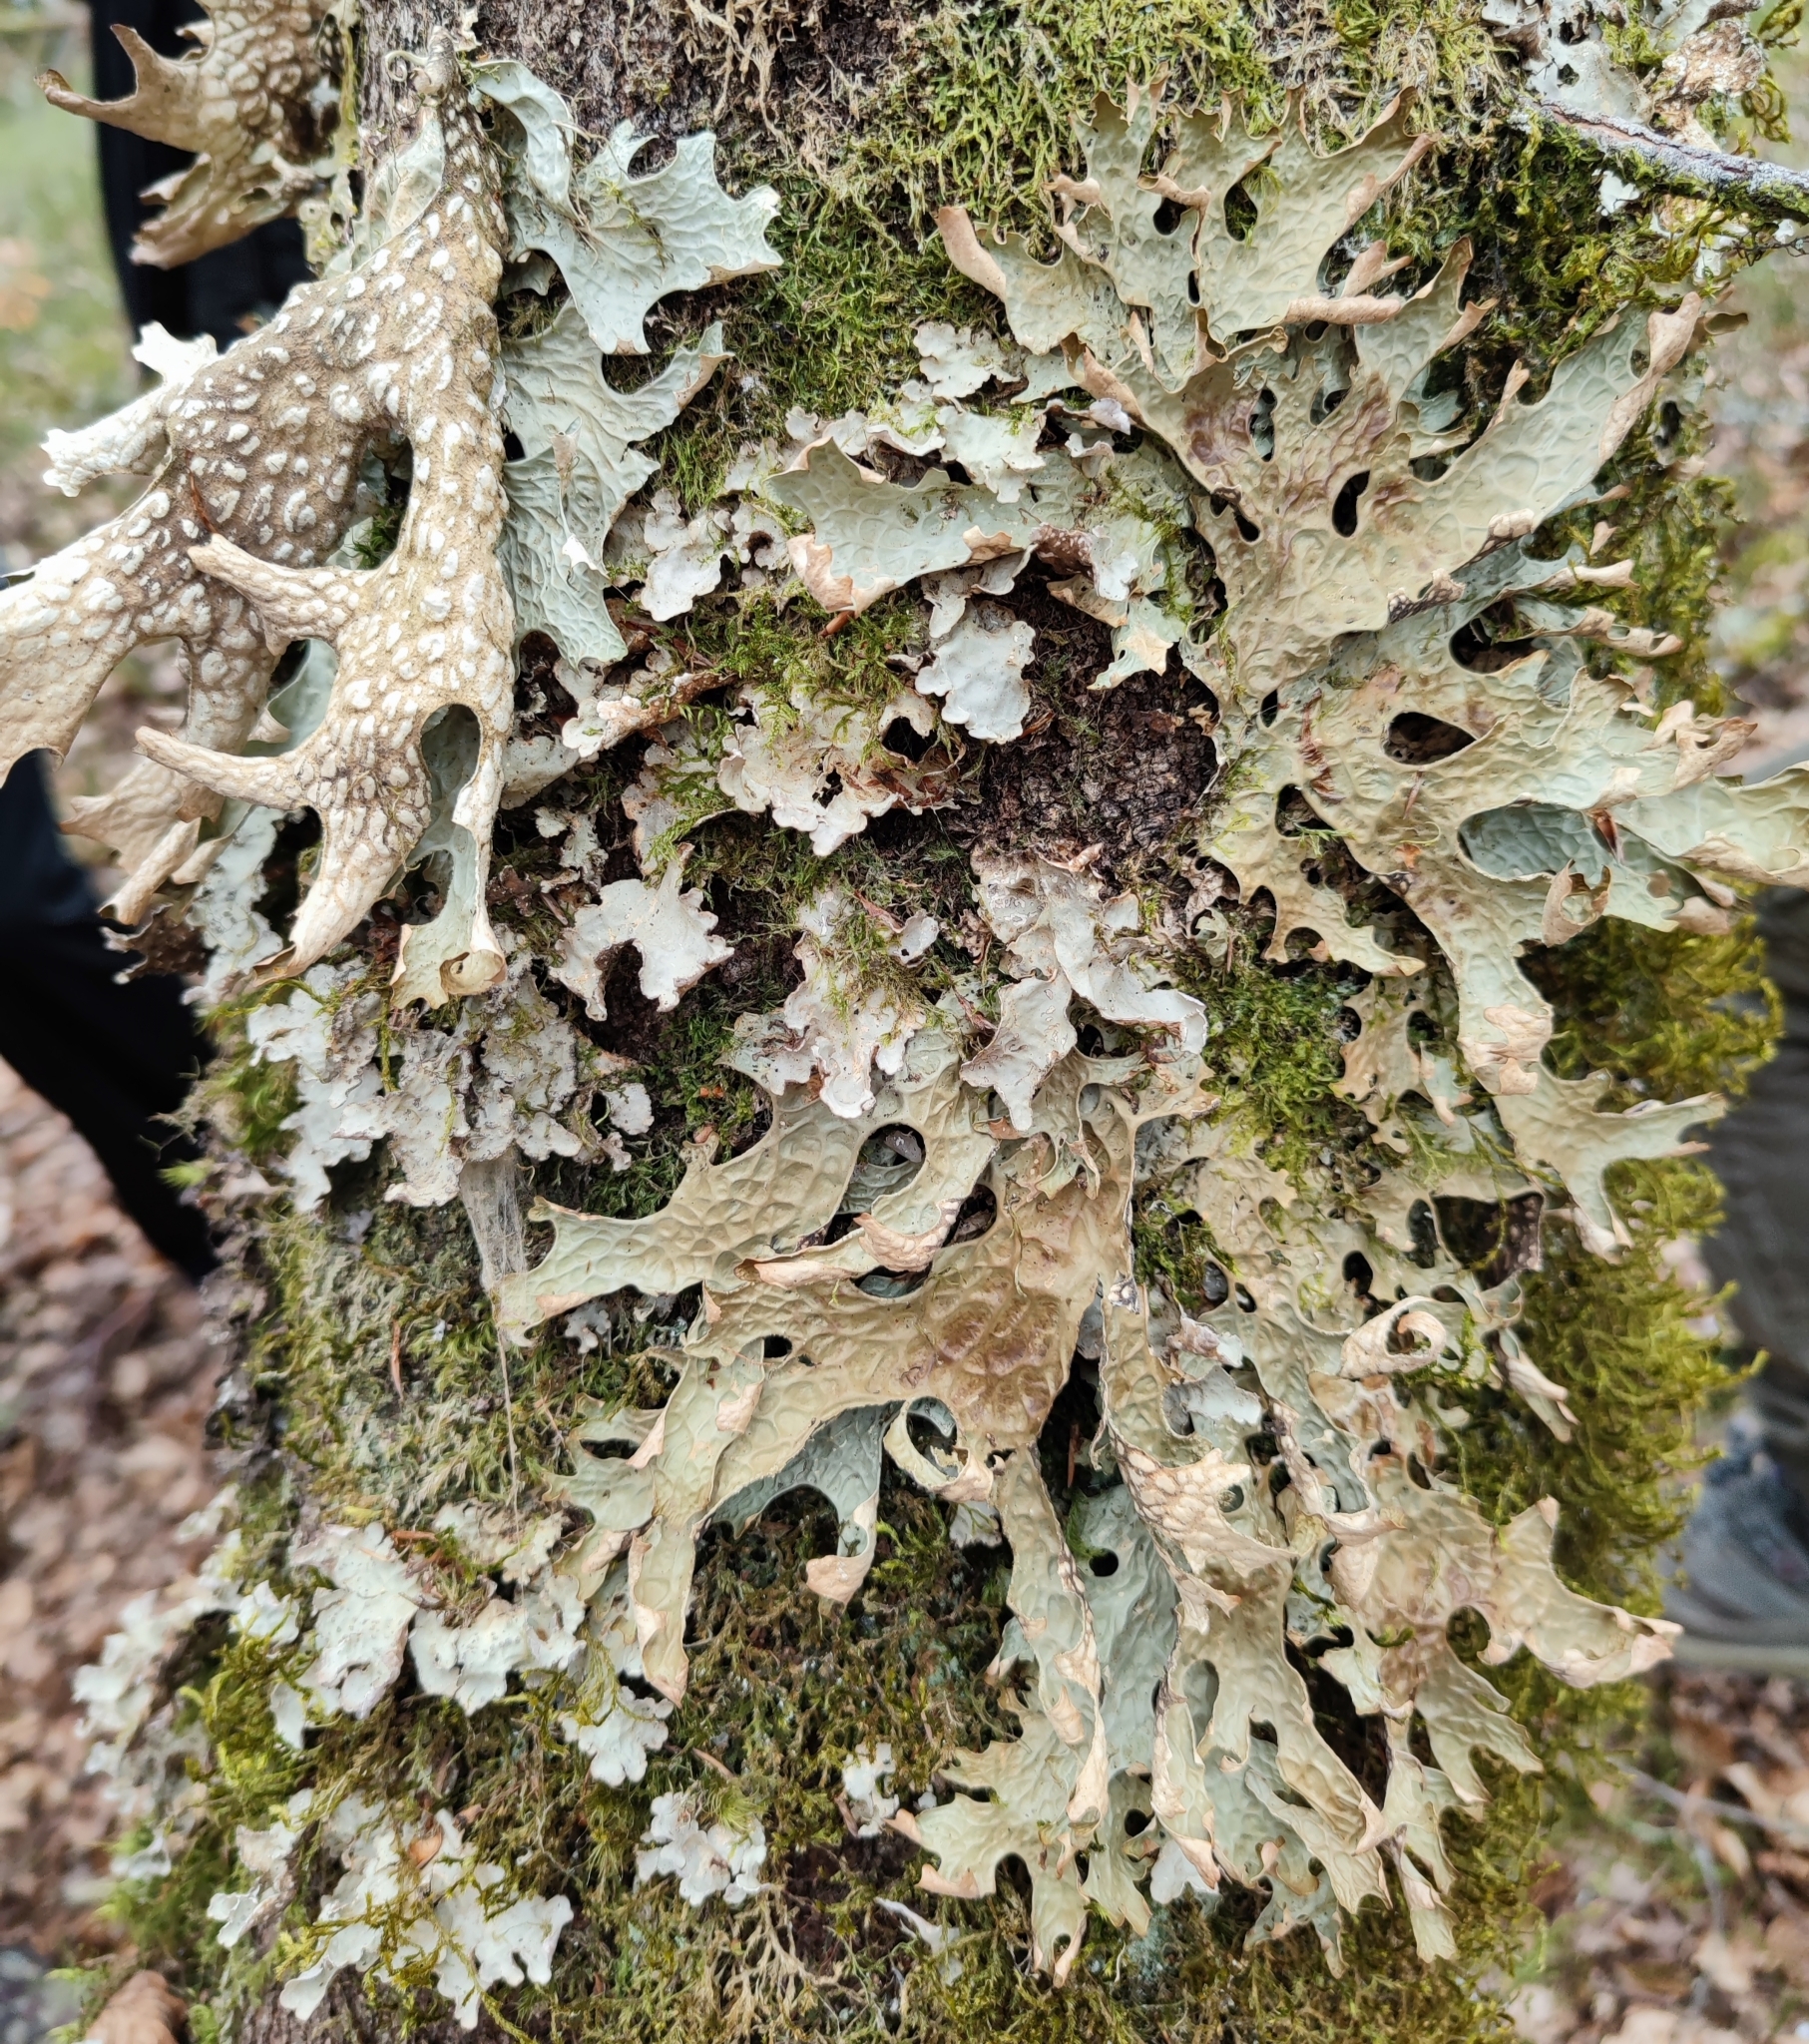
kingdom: Fungi
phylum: Ascomycota
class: Lecanoromycetes
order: Peltigerales
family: Lobariaceae
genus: Lobaria
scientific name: Lobaria pulmonaria
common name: Lungwort
